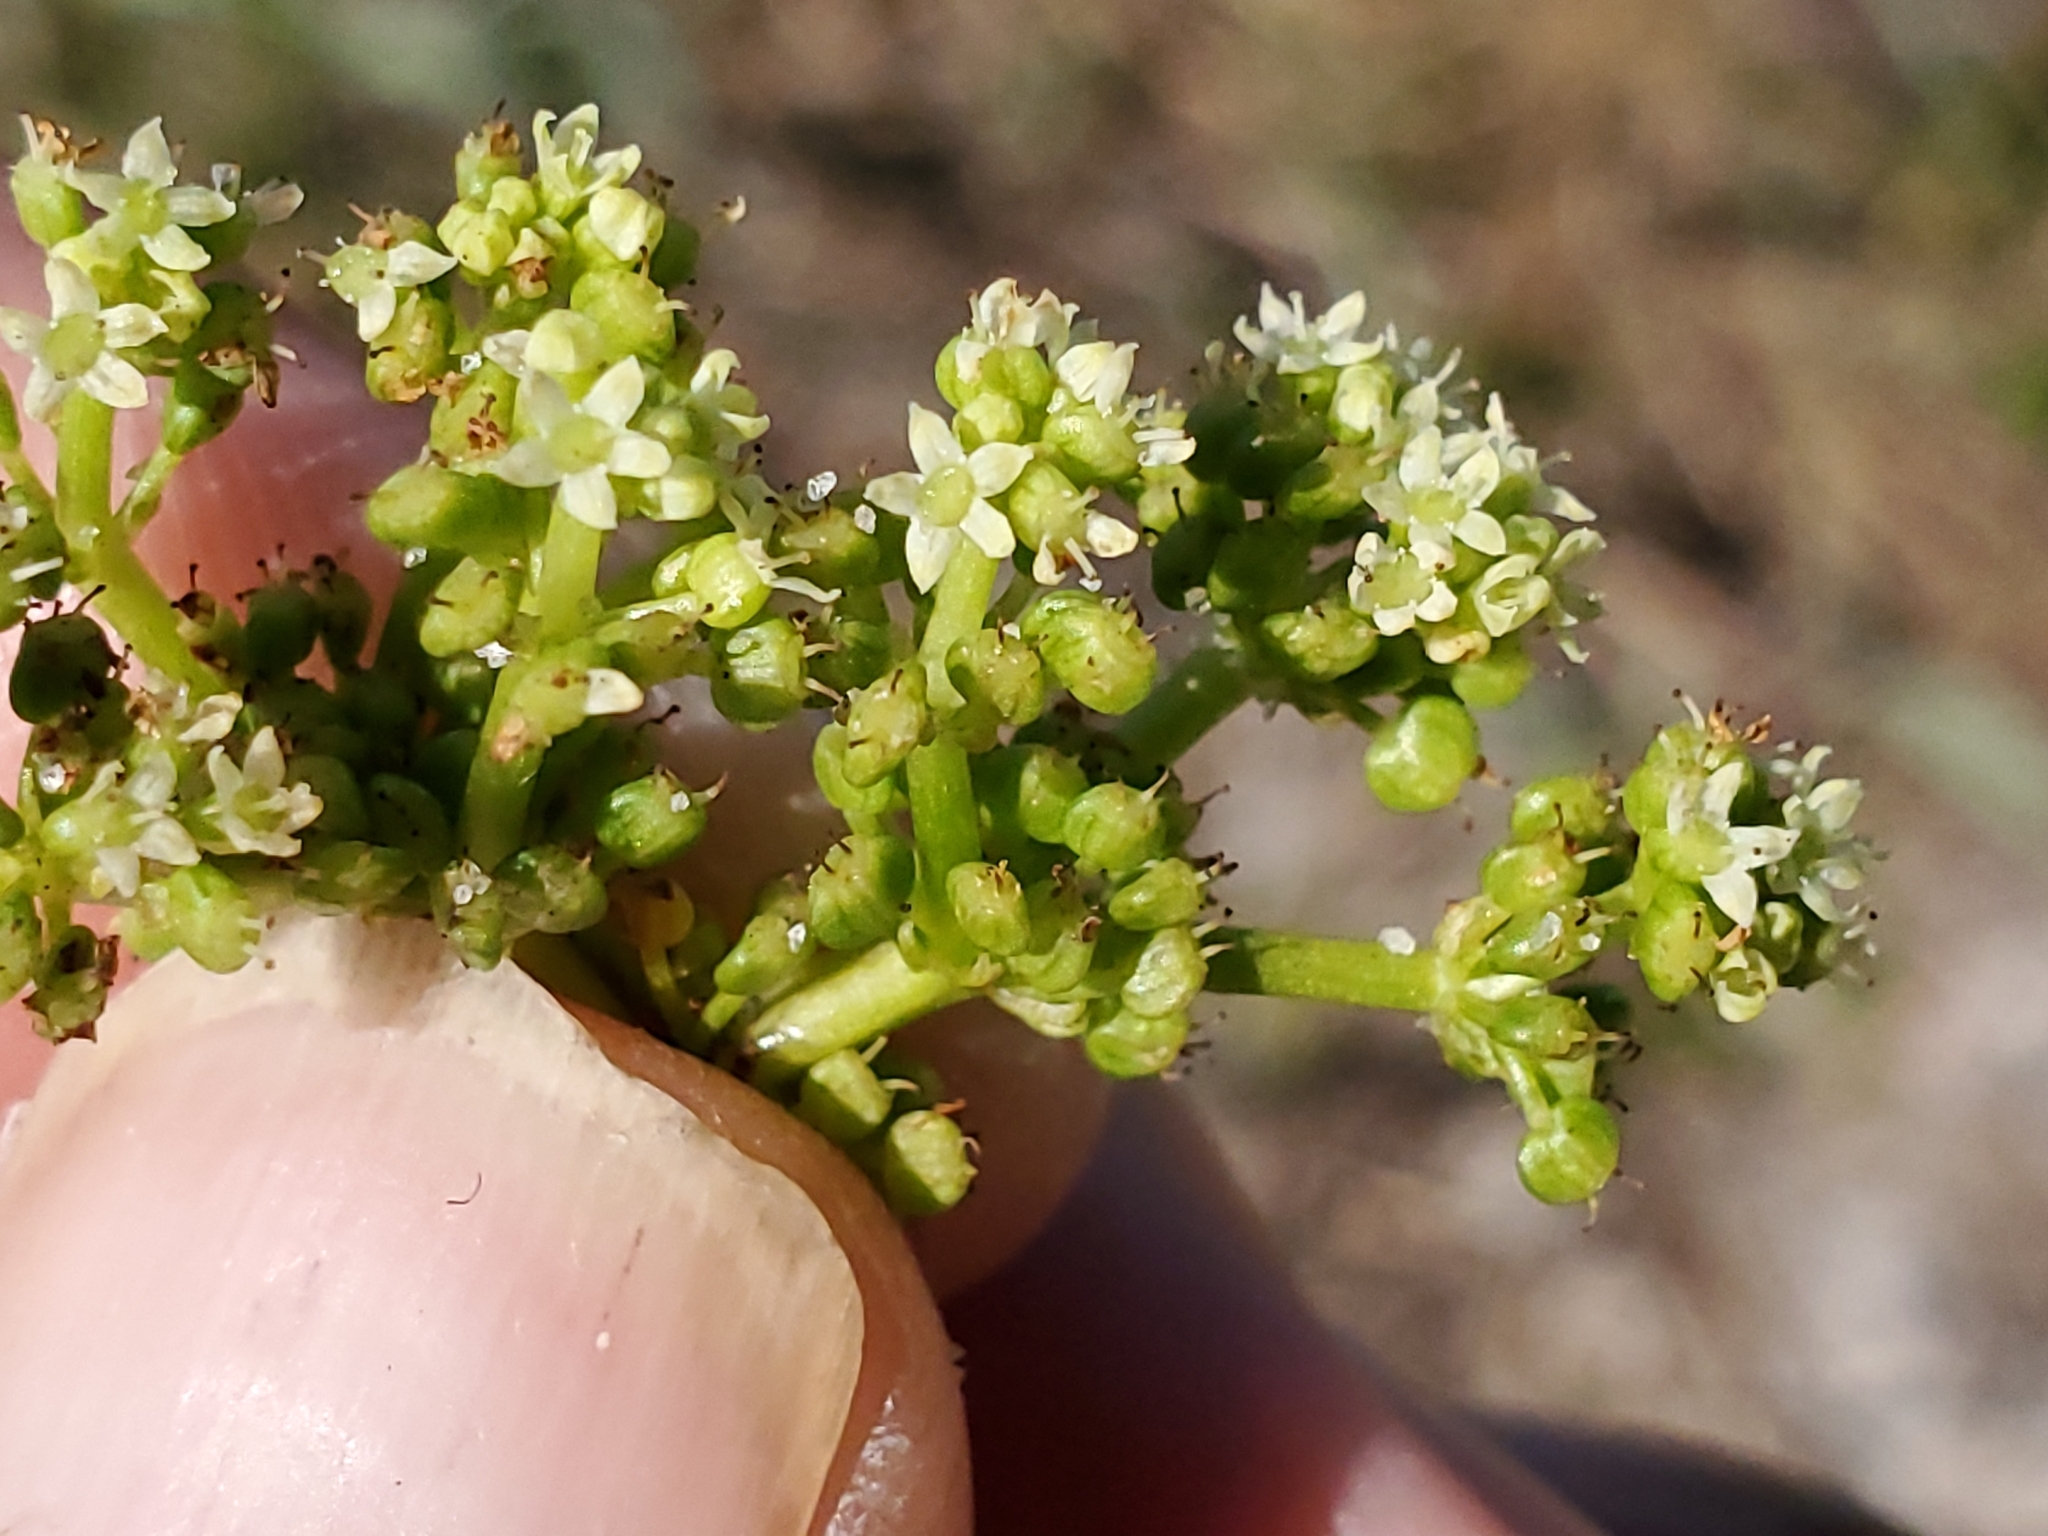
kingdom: Plantae
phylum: Tracheophyta
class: Magnoliopsida
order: Apiales
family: Araliaceae
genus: Hydrocotyle
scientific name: Hydrocotyle bonariensis
